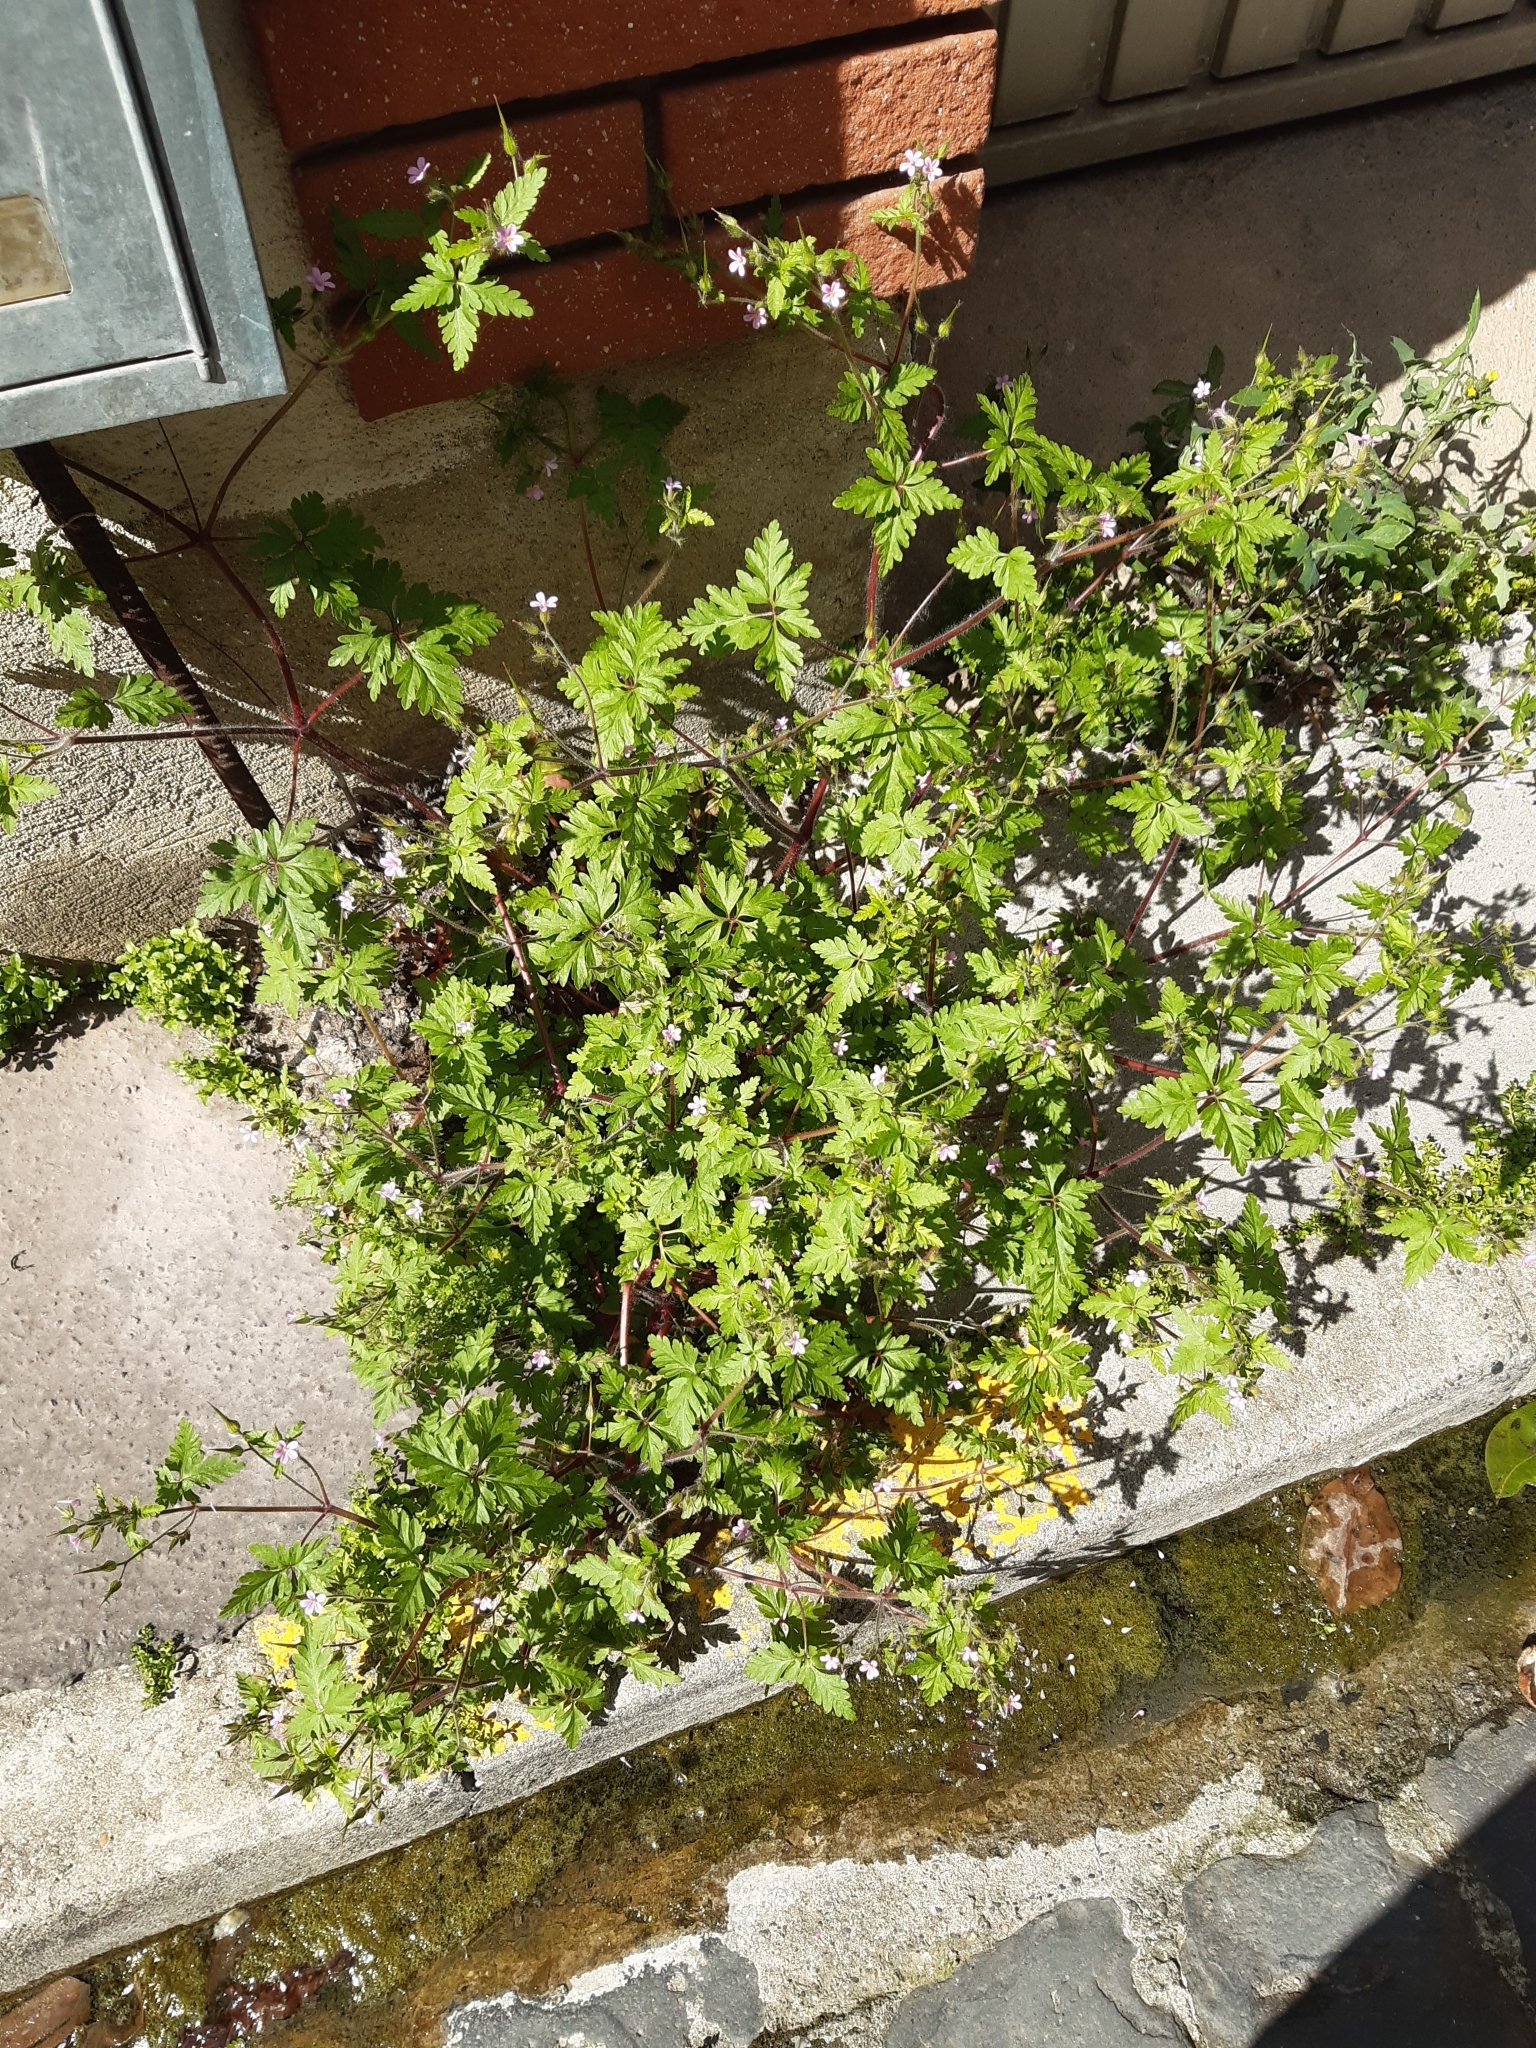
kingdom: Plantae
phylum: Tracheophyta
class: Magnoliopsida
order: Geraniales
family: Geraniaceae
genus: Geranium
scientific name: Geranium purpureum
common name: Little-robin
